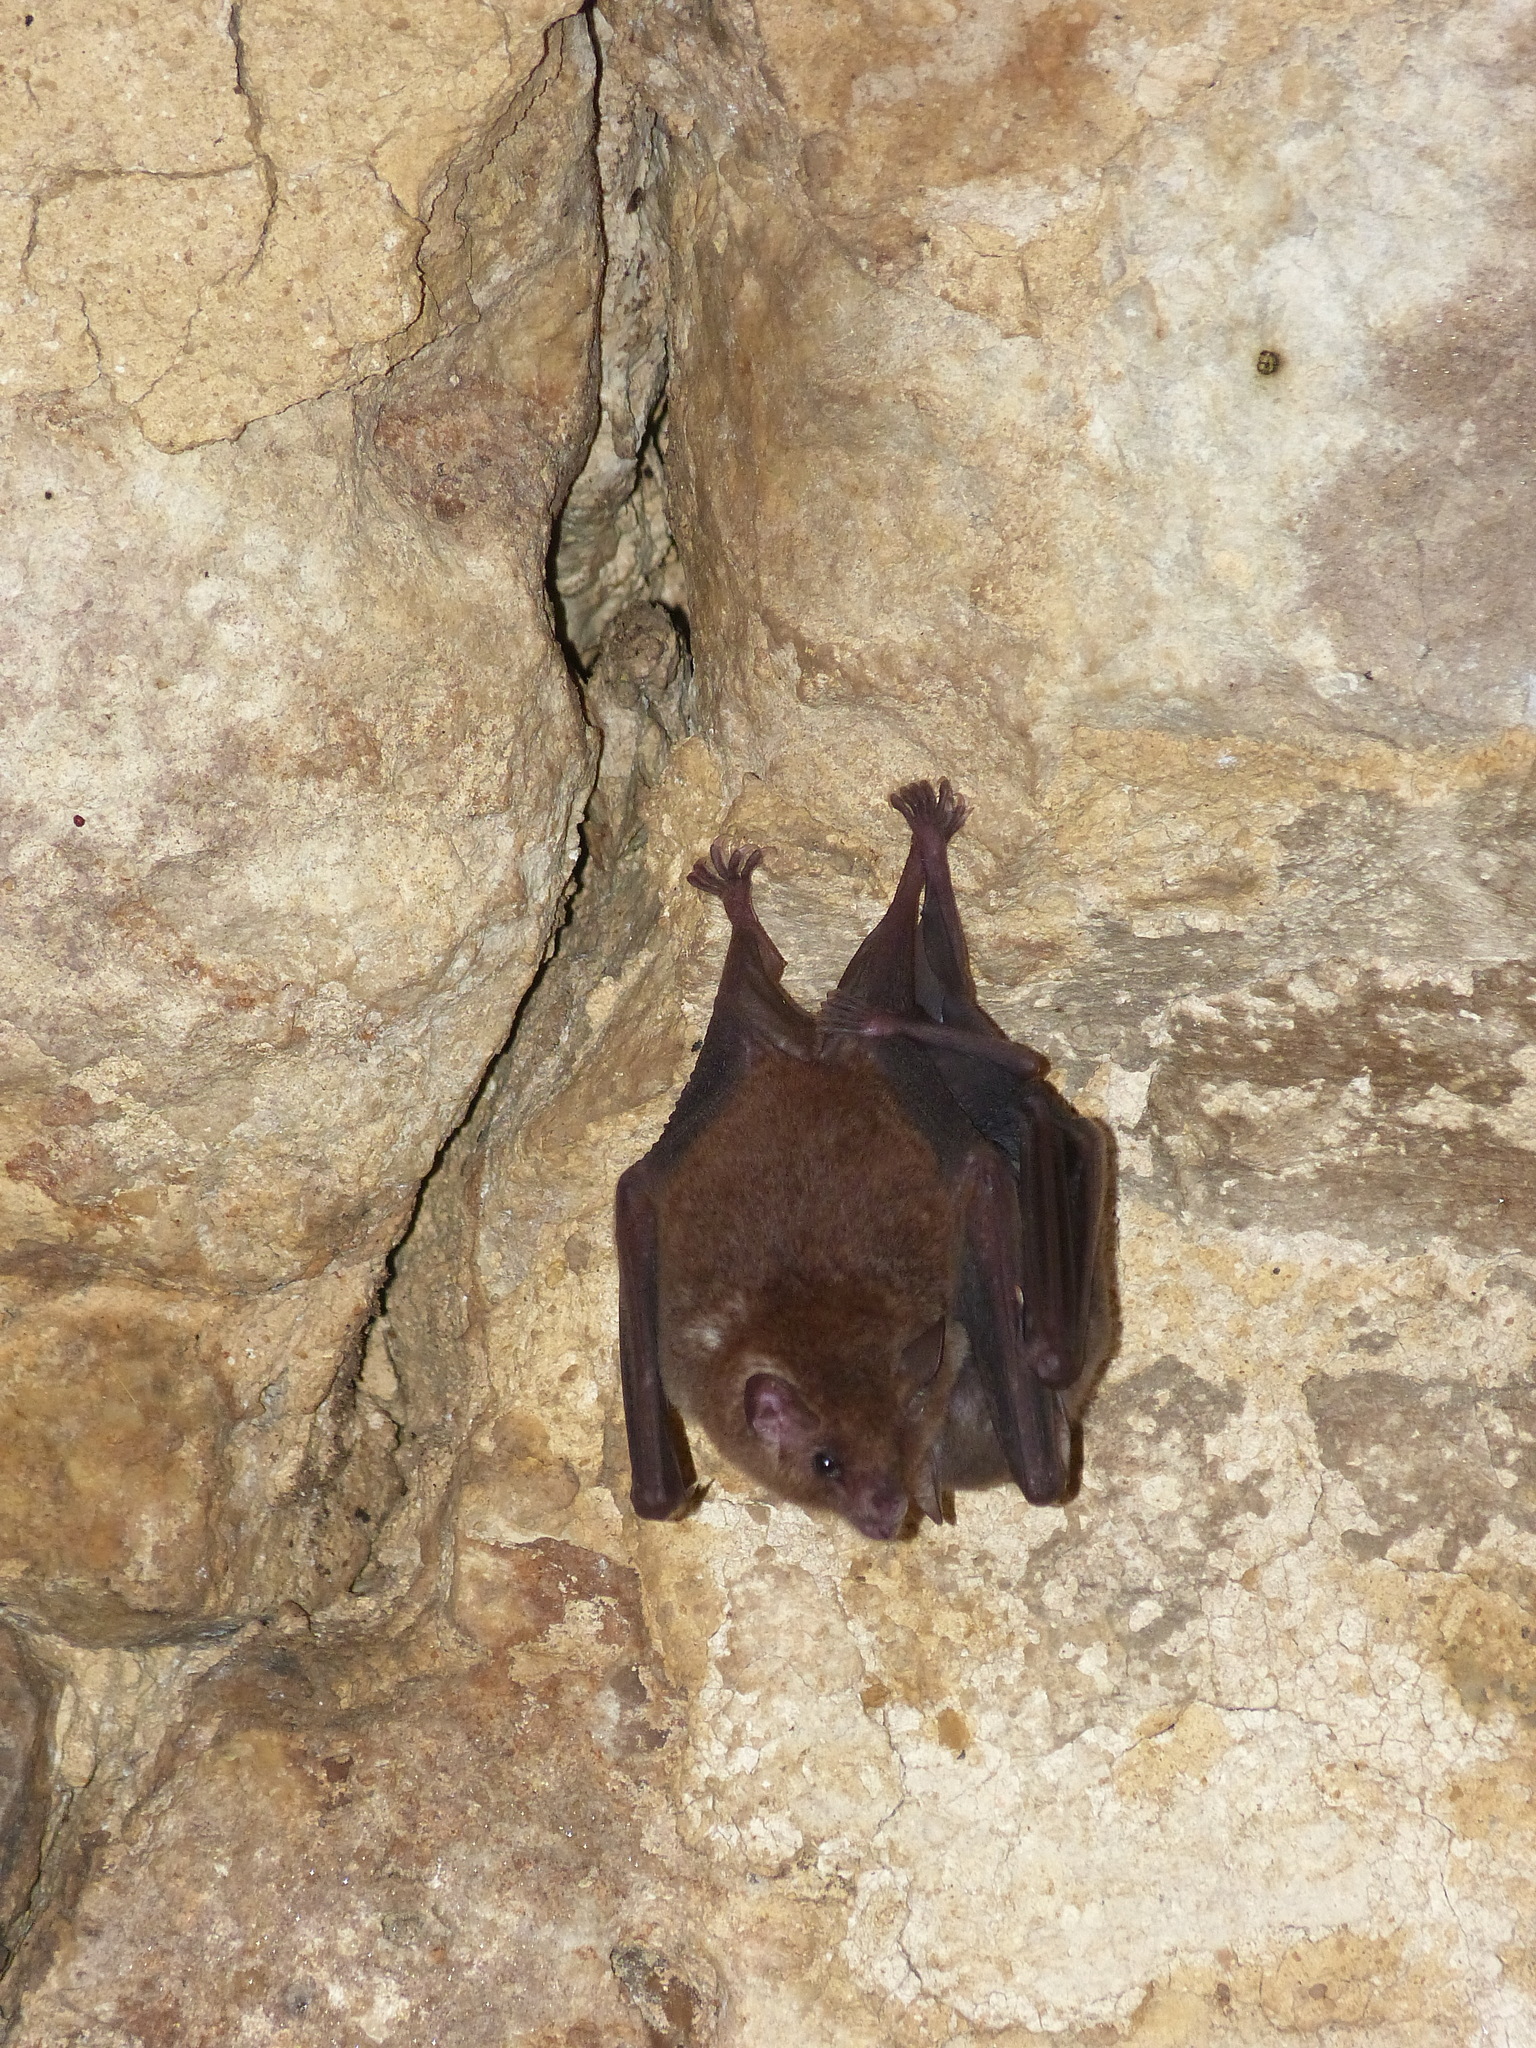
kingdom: Animalia
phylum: Chordata
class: Mammalia
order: Chiroptera
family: Phyllostomidae
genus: Glossophaga
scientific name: Glossophaga soricina
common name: Pallas's long-tongued bat
